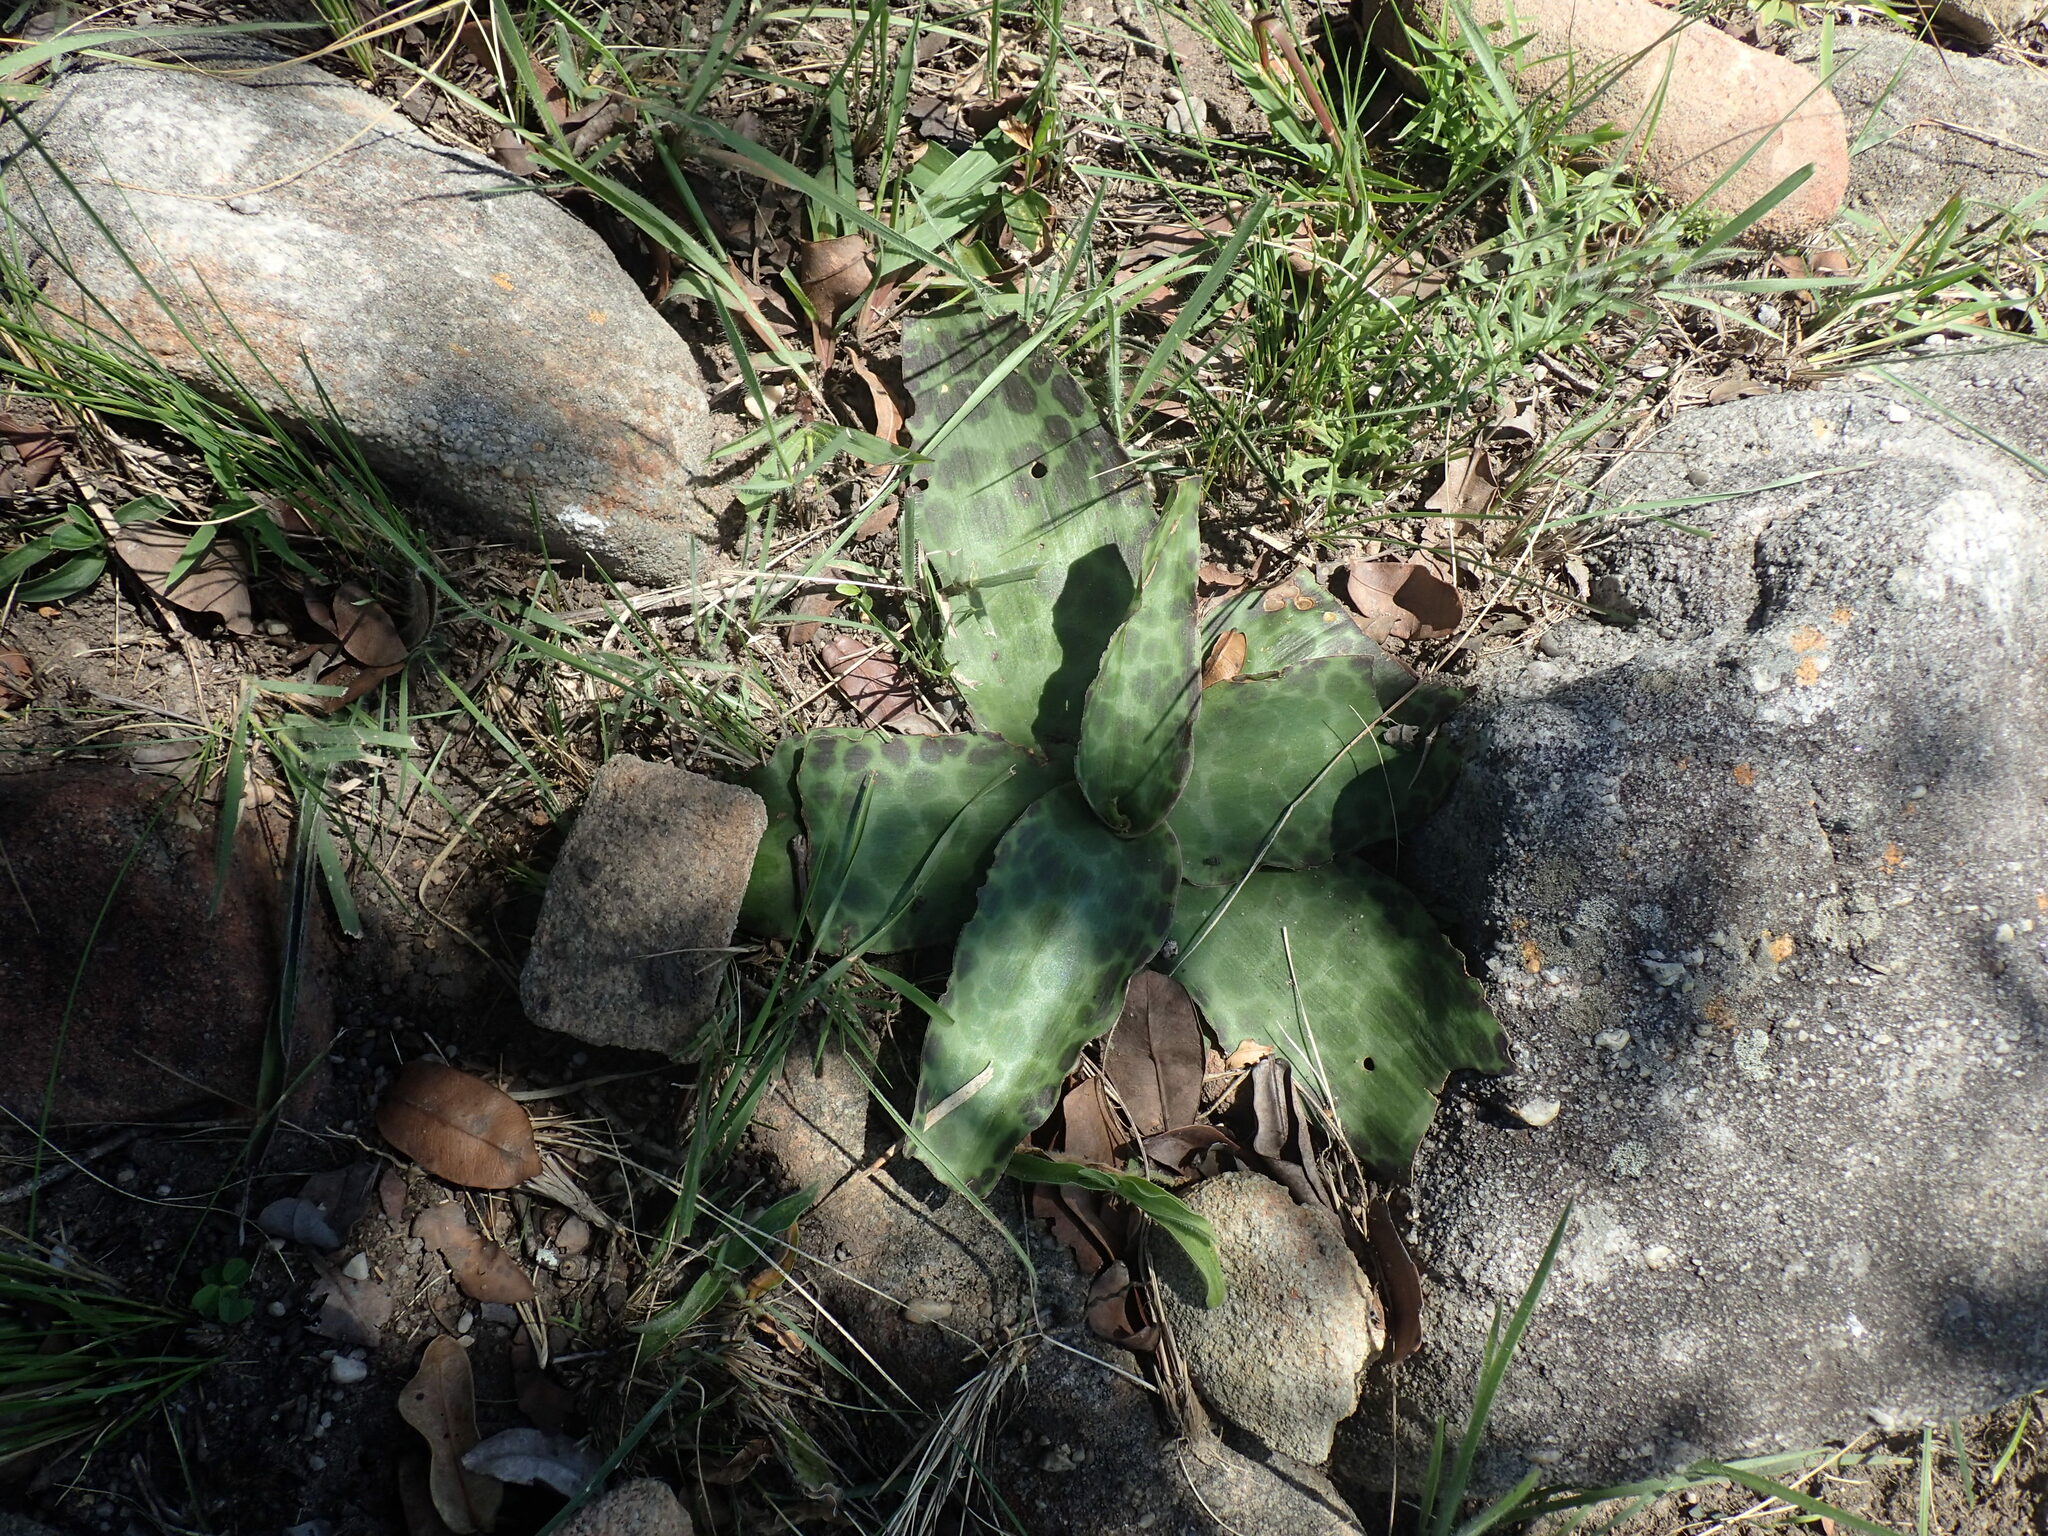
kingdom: Plantae
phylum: Tracheophyta
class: Liliopsida
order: Asparagales
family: Asparagaceae
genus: Ledebouria
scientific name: Ledebouria ovatifolia
